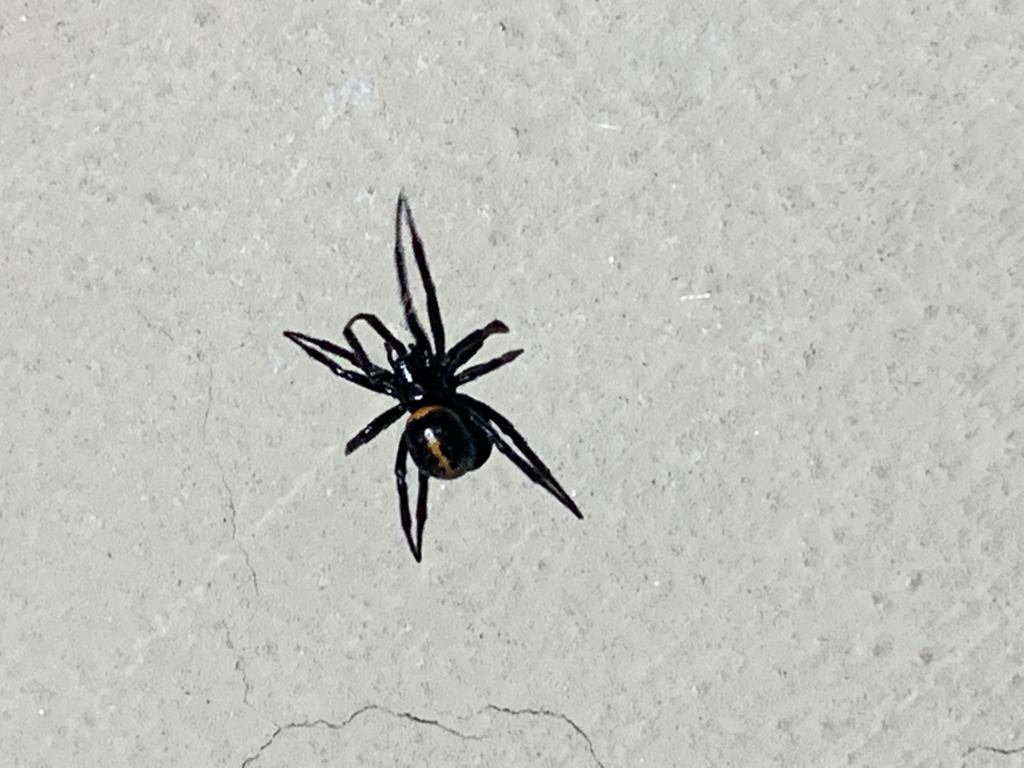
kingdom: Animalia
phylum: Arthropoda
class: Arachnida
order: Araneae
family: Theridiidae
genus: Steatoda
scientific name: Steatoda paykulliana
